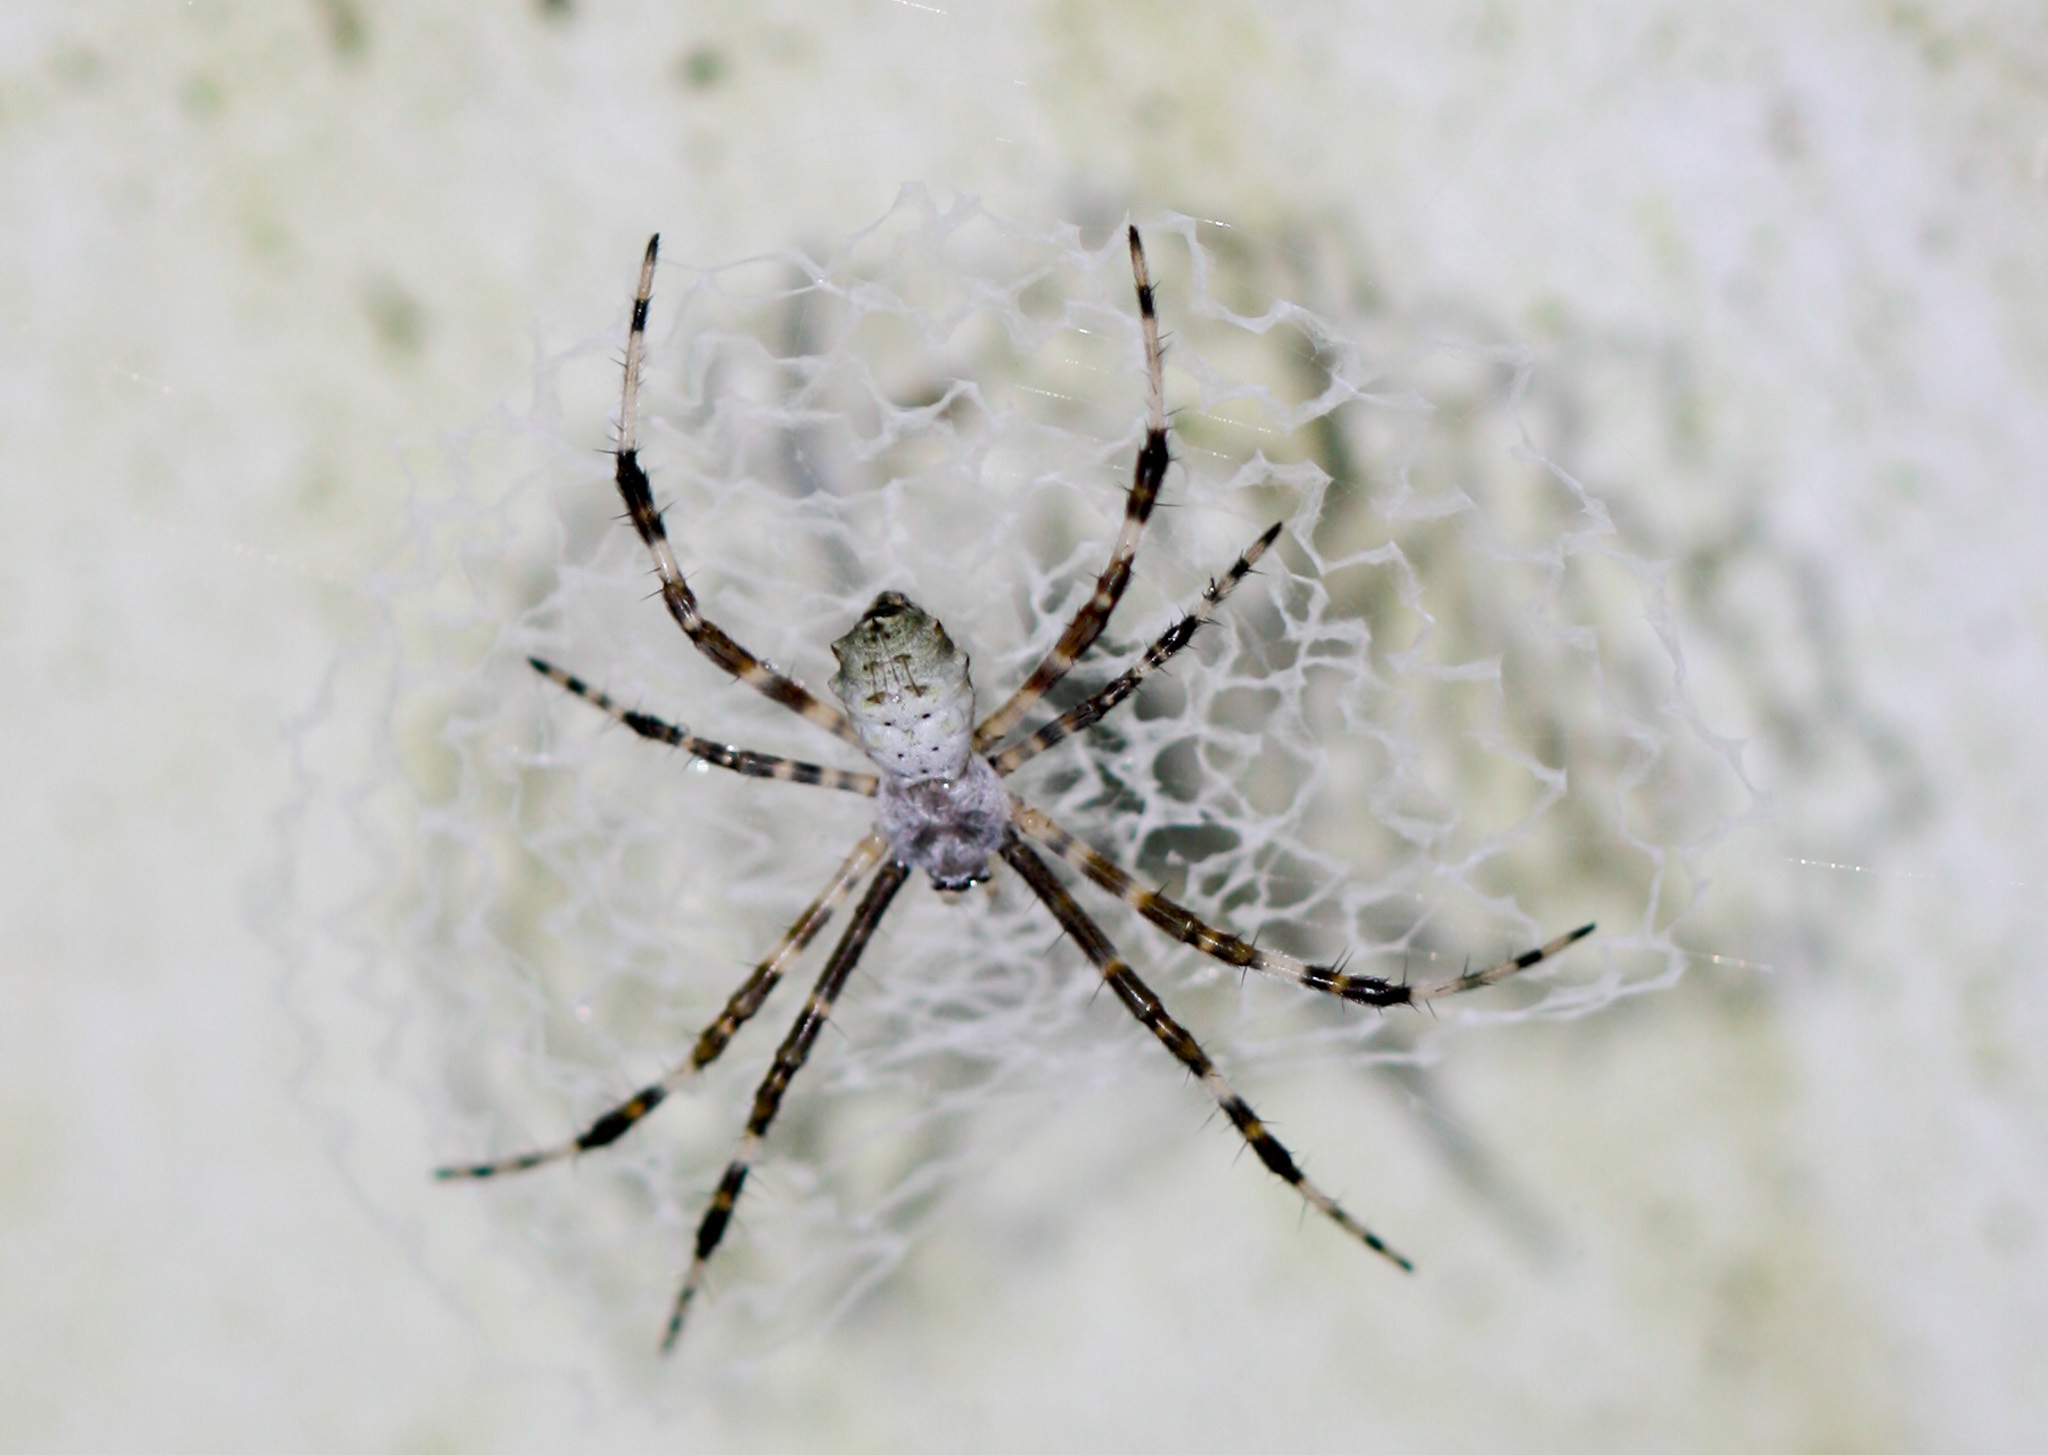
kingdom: Animalia
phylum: Arthropoda
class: Arachnida
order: Araneae
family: Araneidae
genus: Argiope
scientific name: Argiope submaronica
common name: Orb weavers
